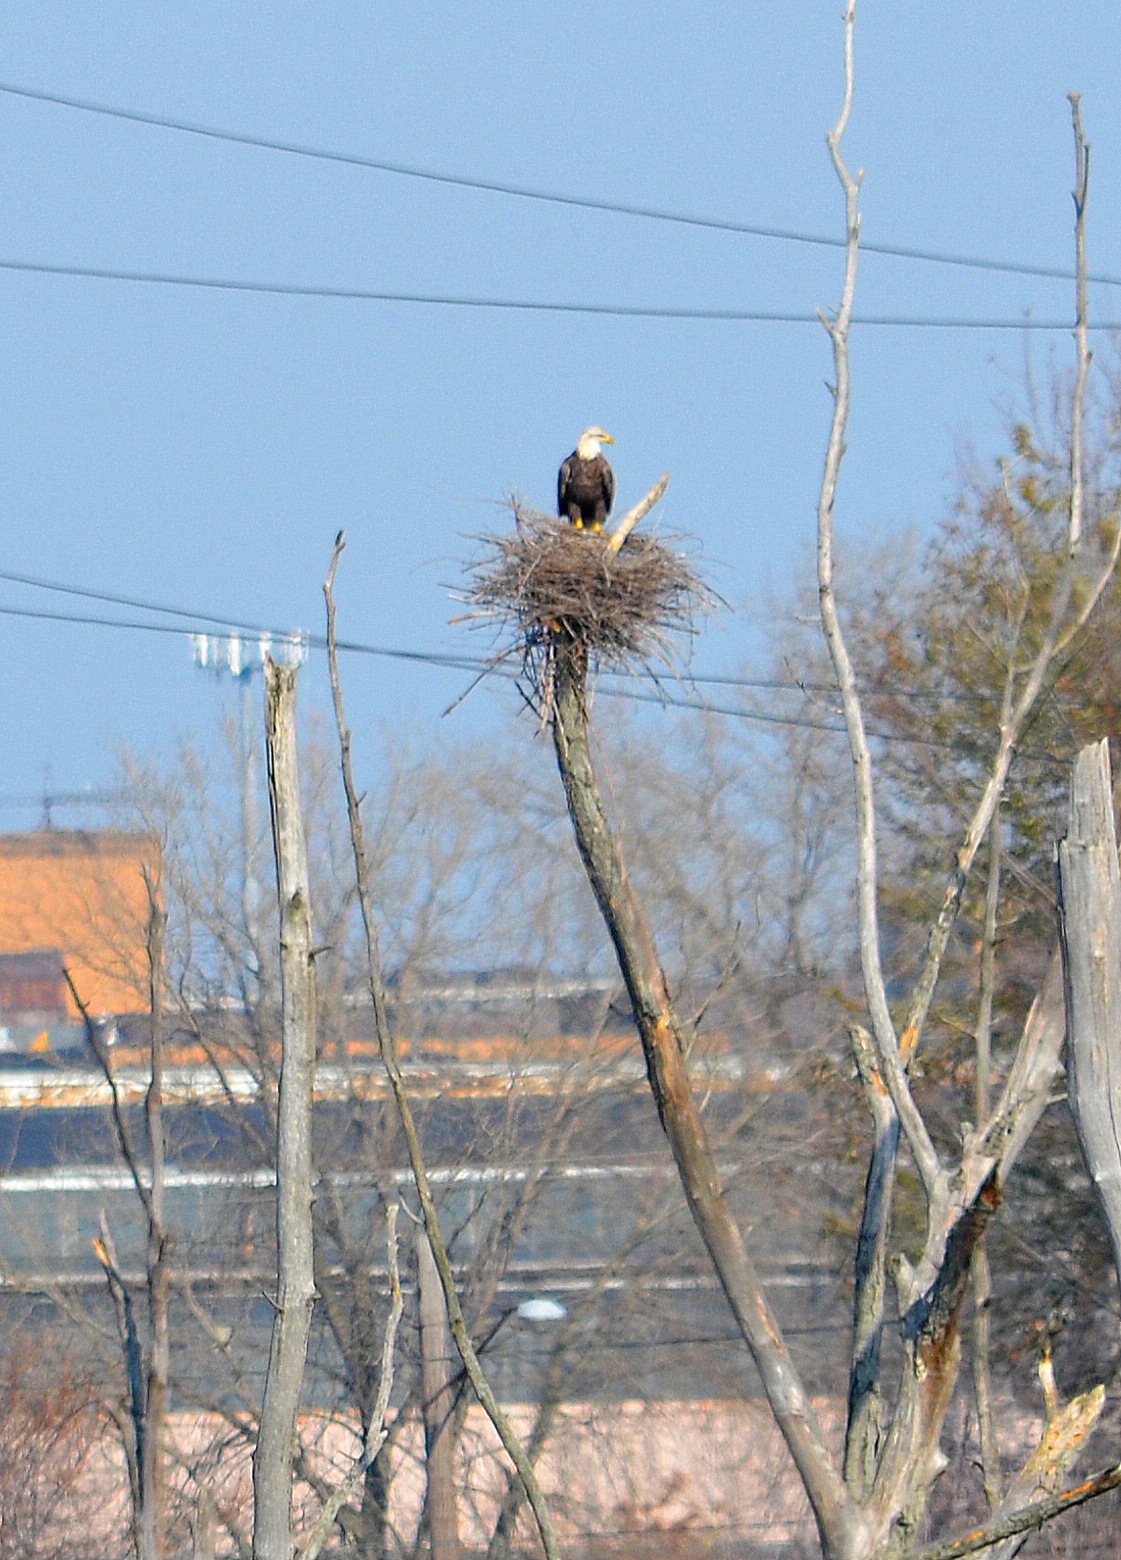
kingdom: Animalia
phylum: Chordata
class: Aves
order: Accipitriformes
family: Accipitridae
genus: Haliaeetus
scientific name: Haliaeetus leucocephalus
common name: Bald eagle
